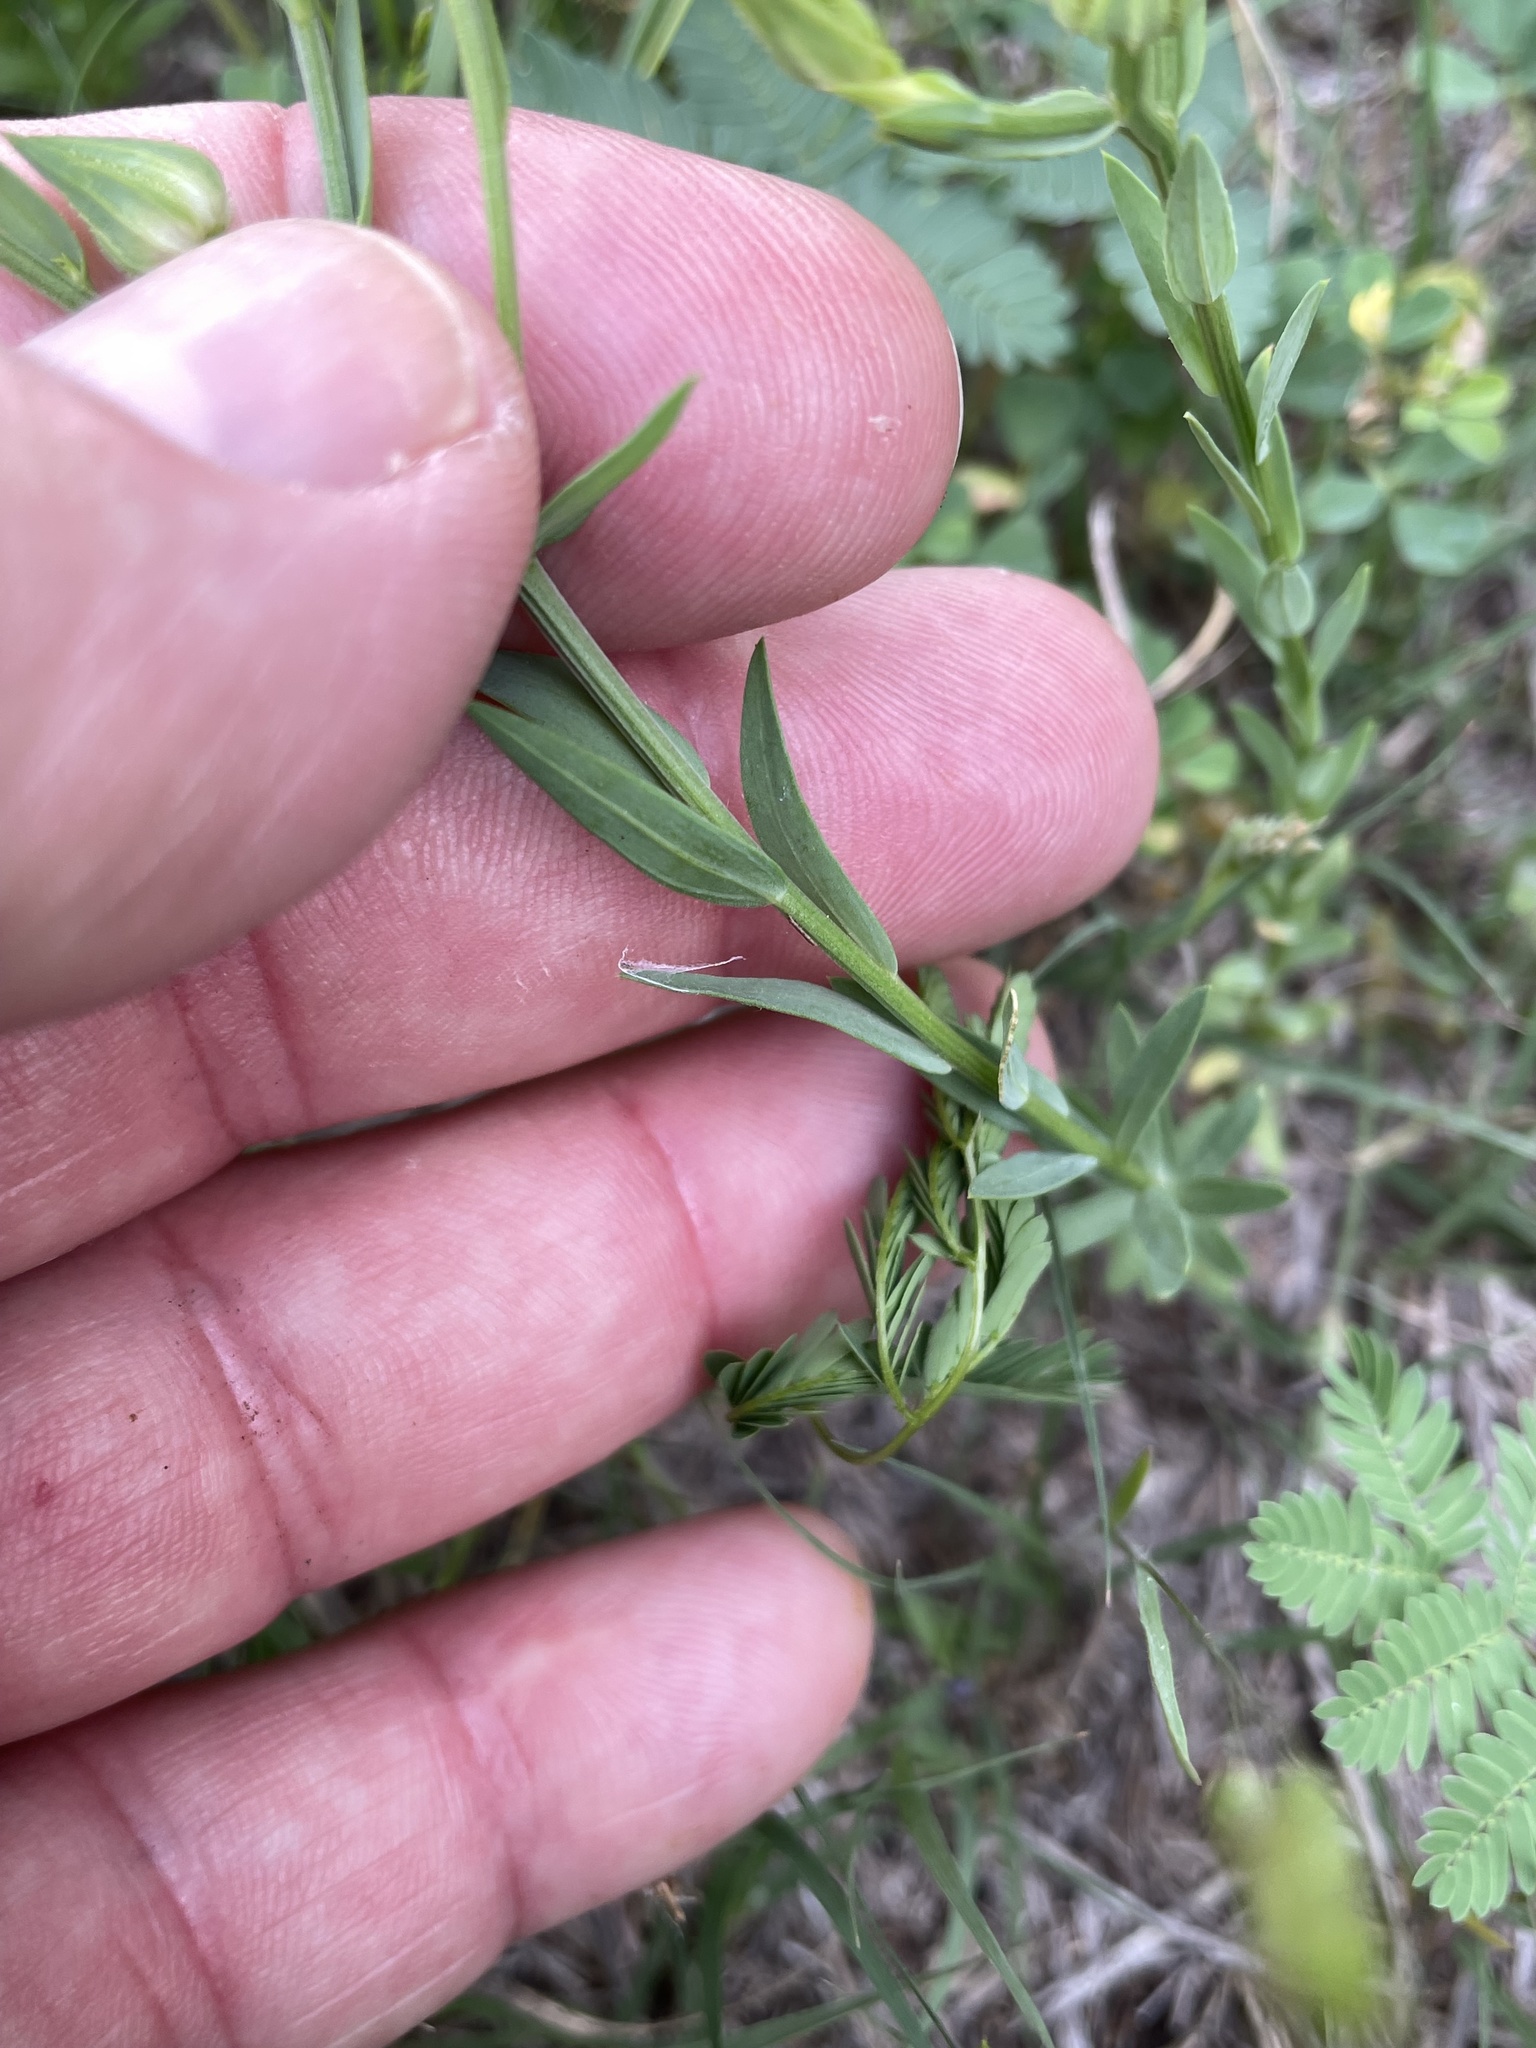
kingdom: Plantae
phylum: Tracheophyta
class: Magnoliopsida
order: Malpighiales
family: Linaceae
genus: Linum
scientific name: Linum rigidum
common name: Stiff-stem flax
